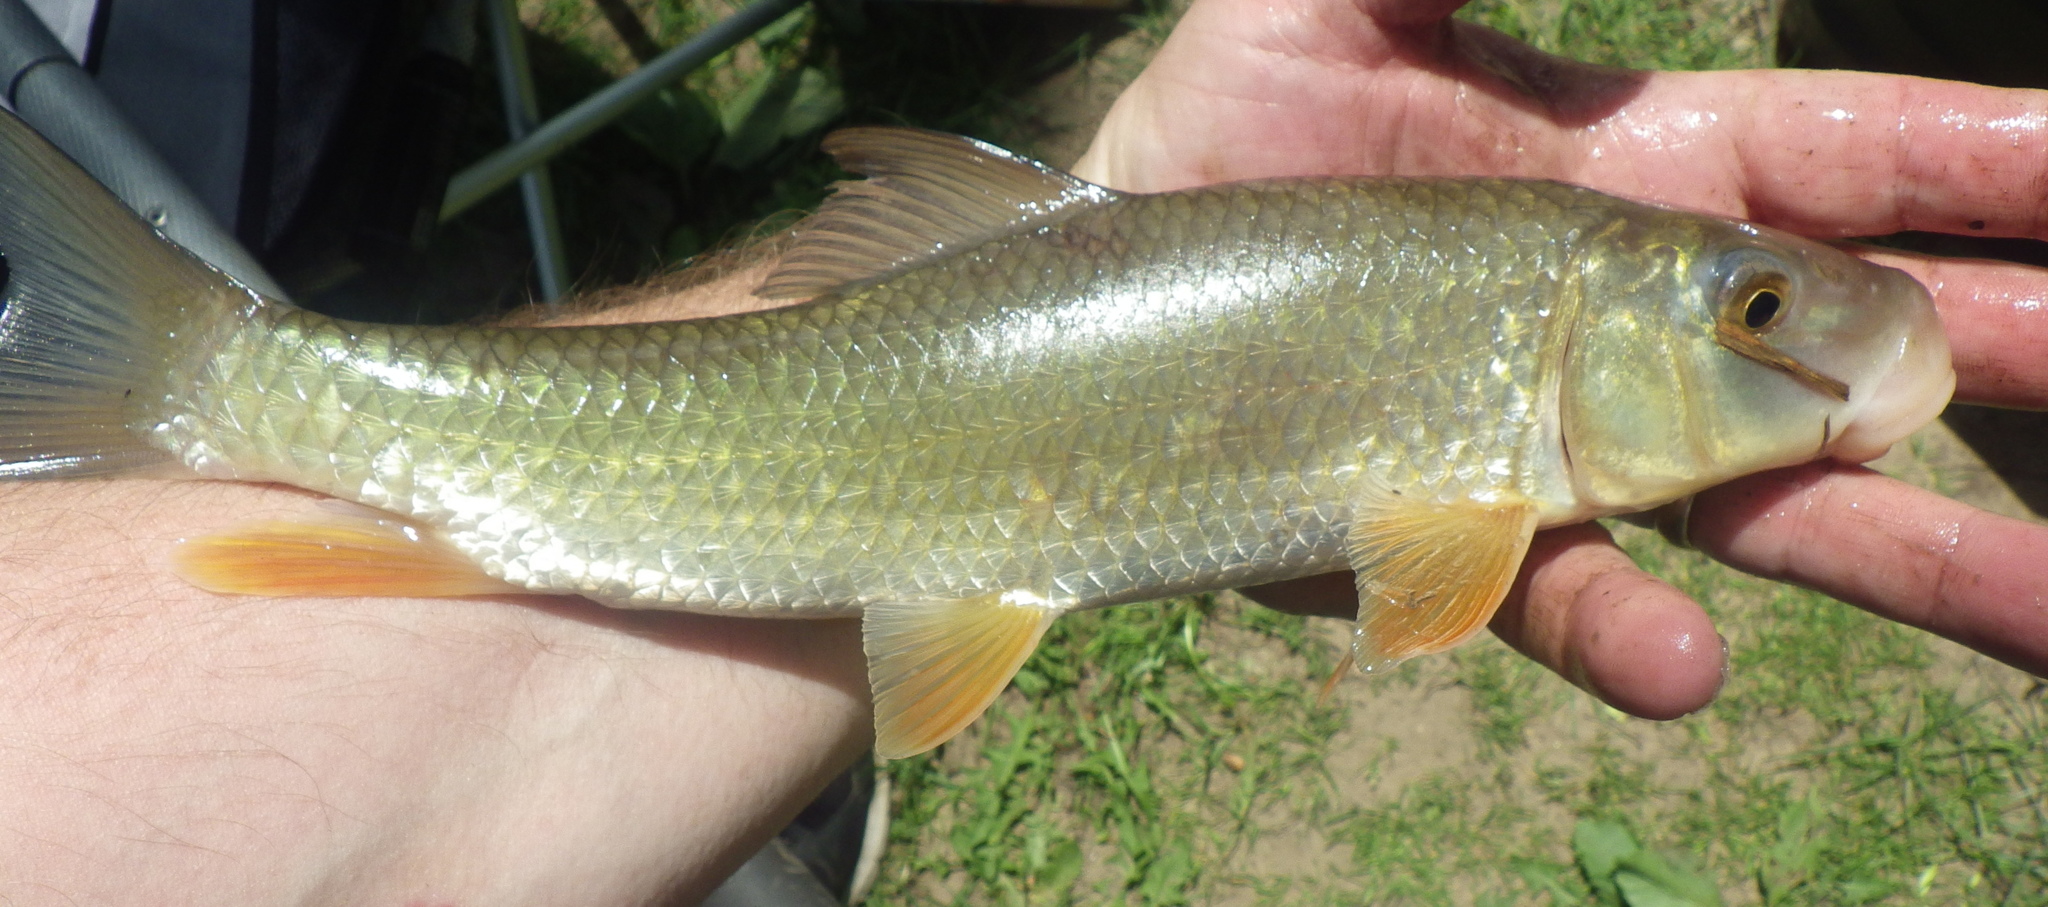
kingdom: Animalia
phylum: Chordata
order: Cypriniformes
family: Catostomidae
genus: Moxostoma
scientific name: Moxostoma erythrurum
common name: Golden redhorse
